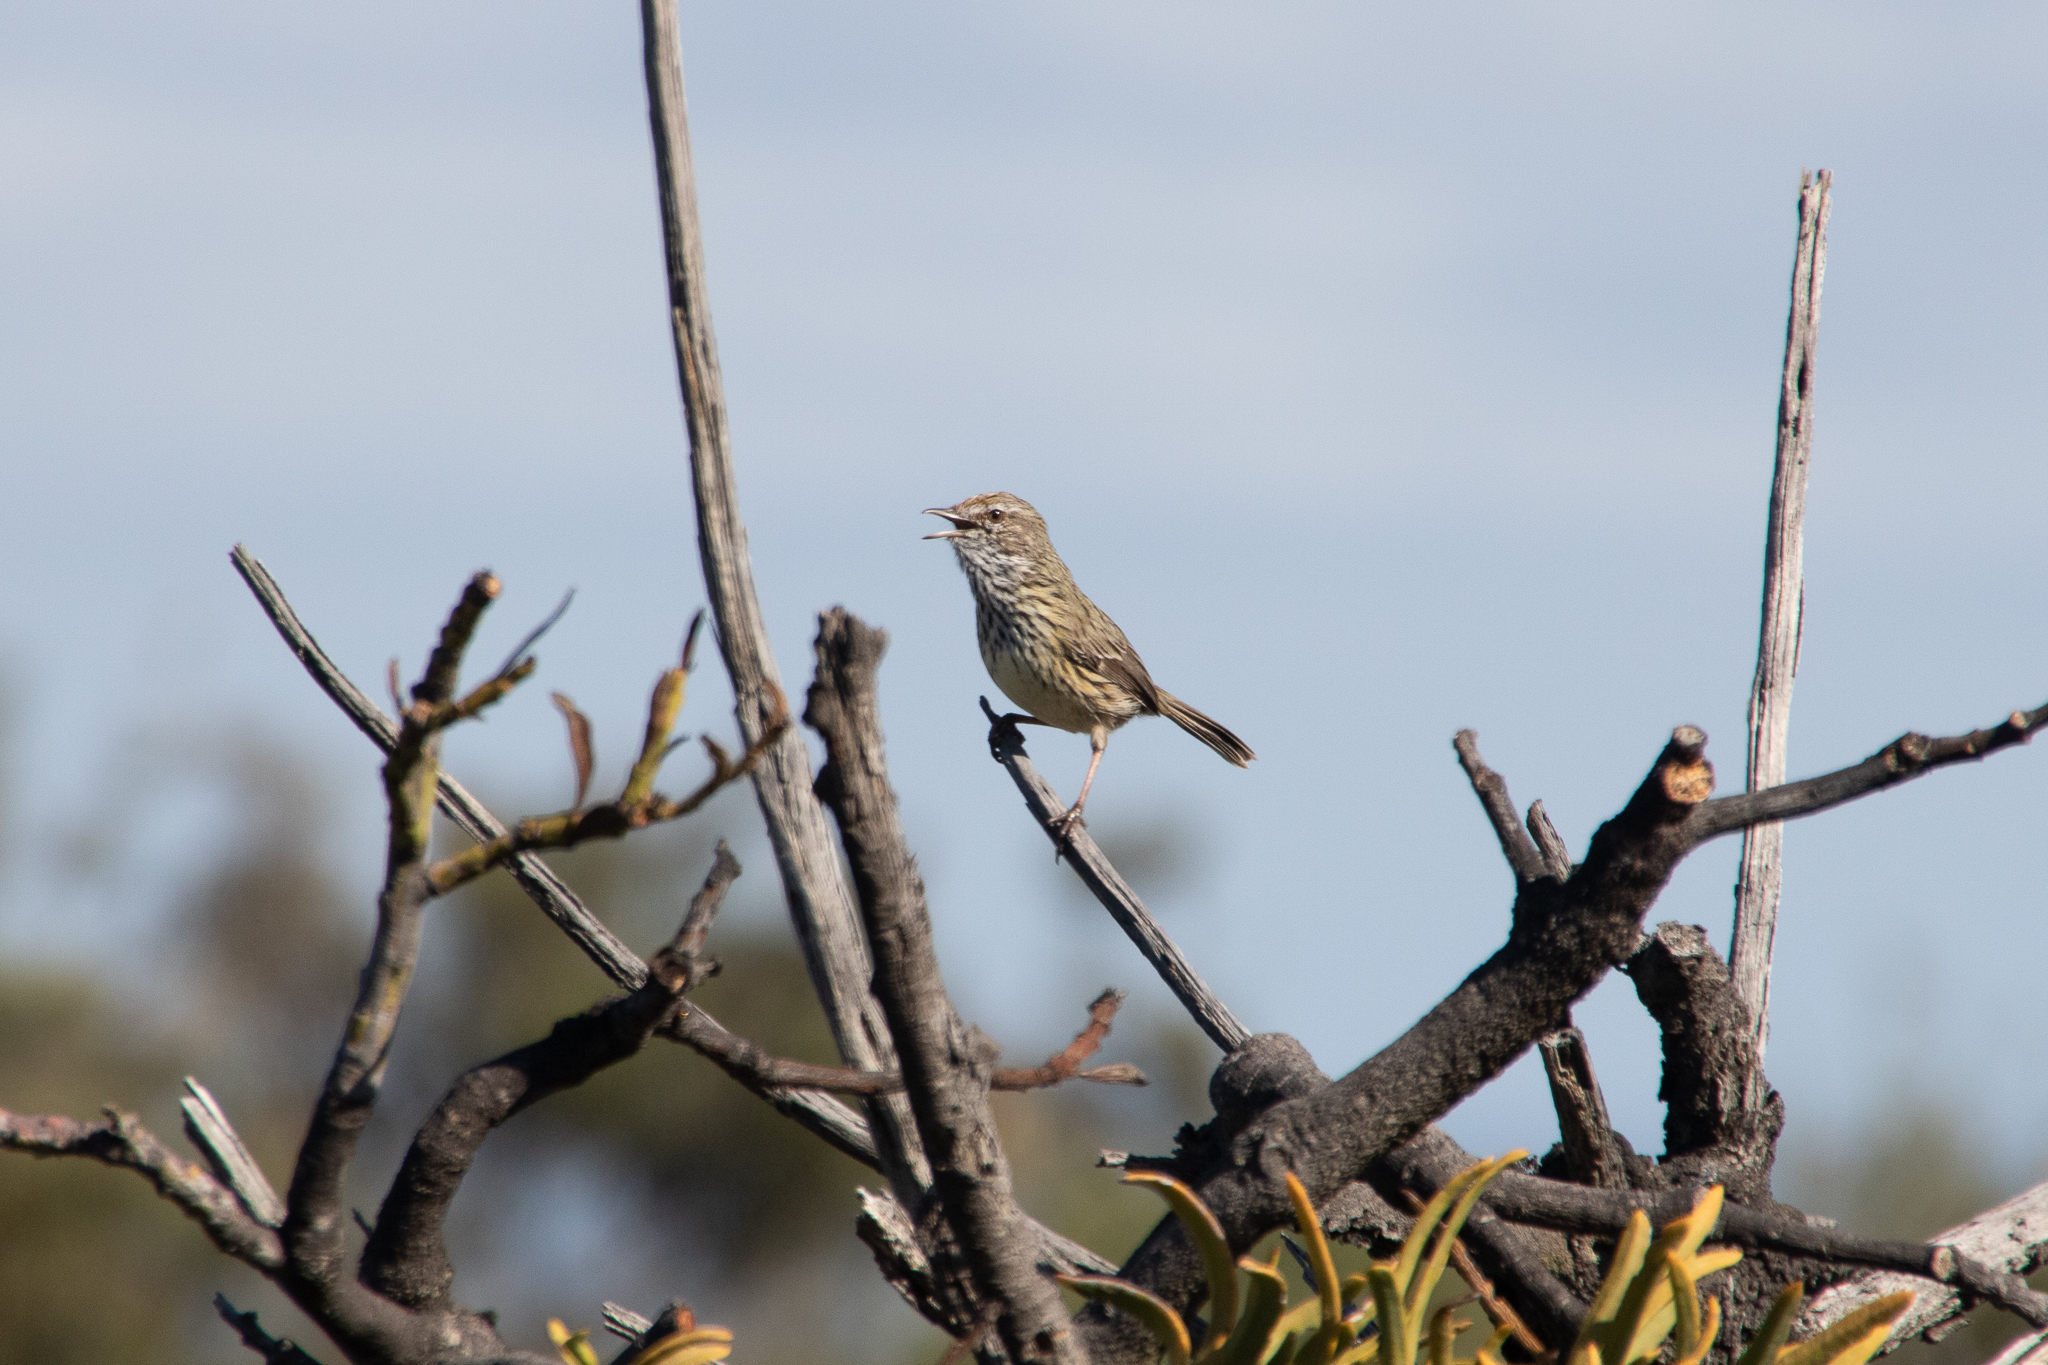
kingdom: Animalia
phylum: Chordata
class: Aves
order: Passeriformes
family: Acanthizidae
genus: Calamanthus
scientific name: Calamanthus montanellus
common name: Western fieldwren
